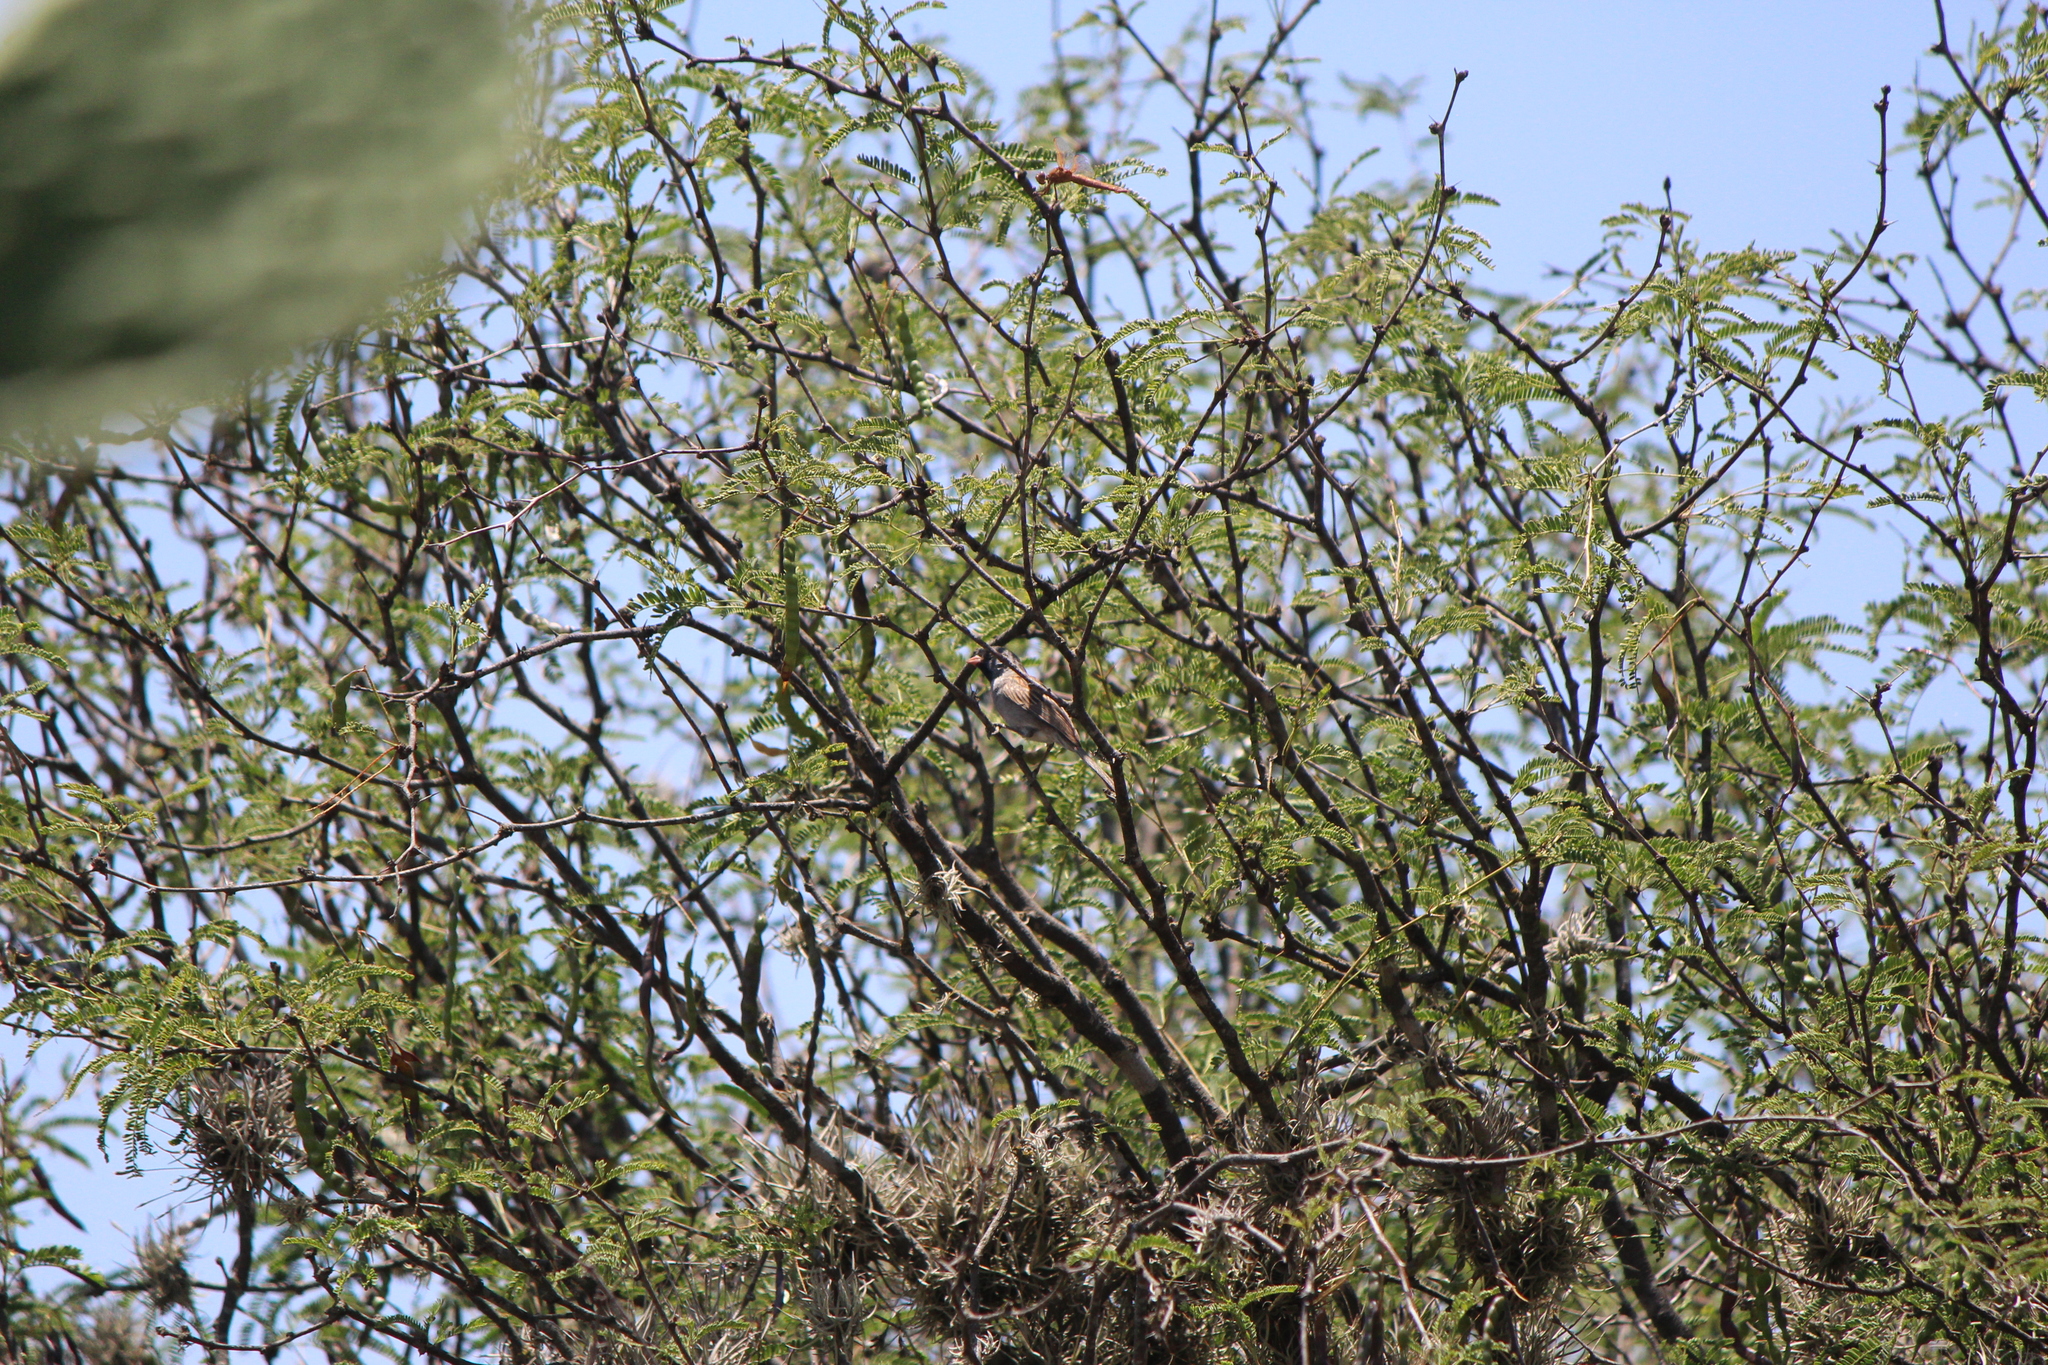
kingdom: Animalia
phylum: Chordata
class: Aves
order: Passeriformes
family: Passerellidae
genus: Spizella
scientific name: Spizella atrogularis
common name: Black-chinned sparrow
